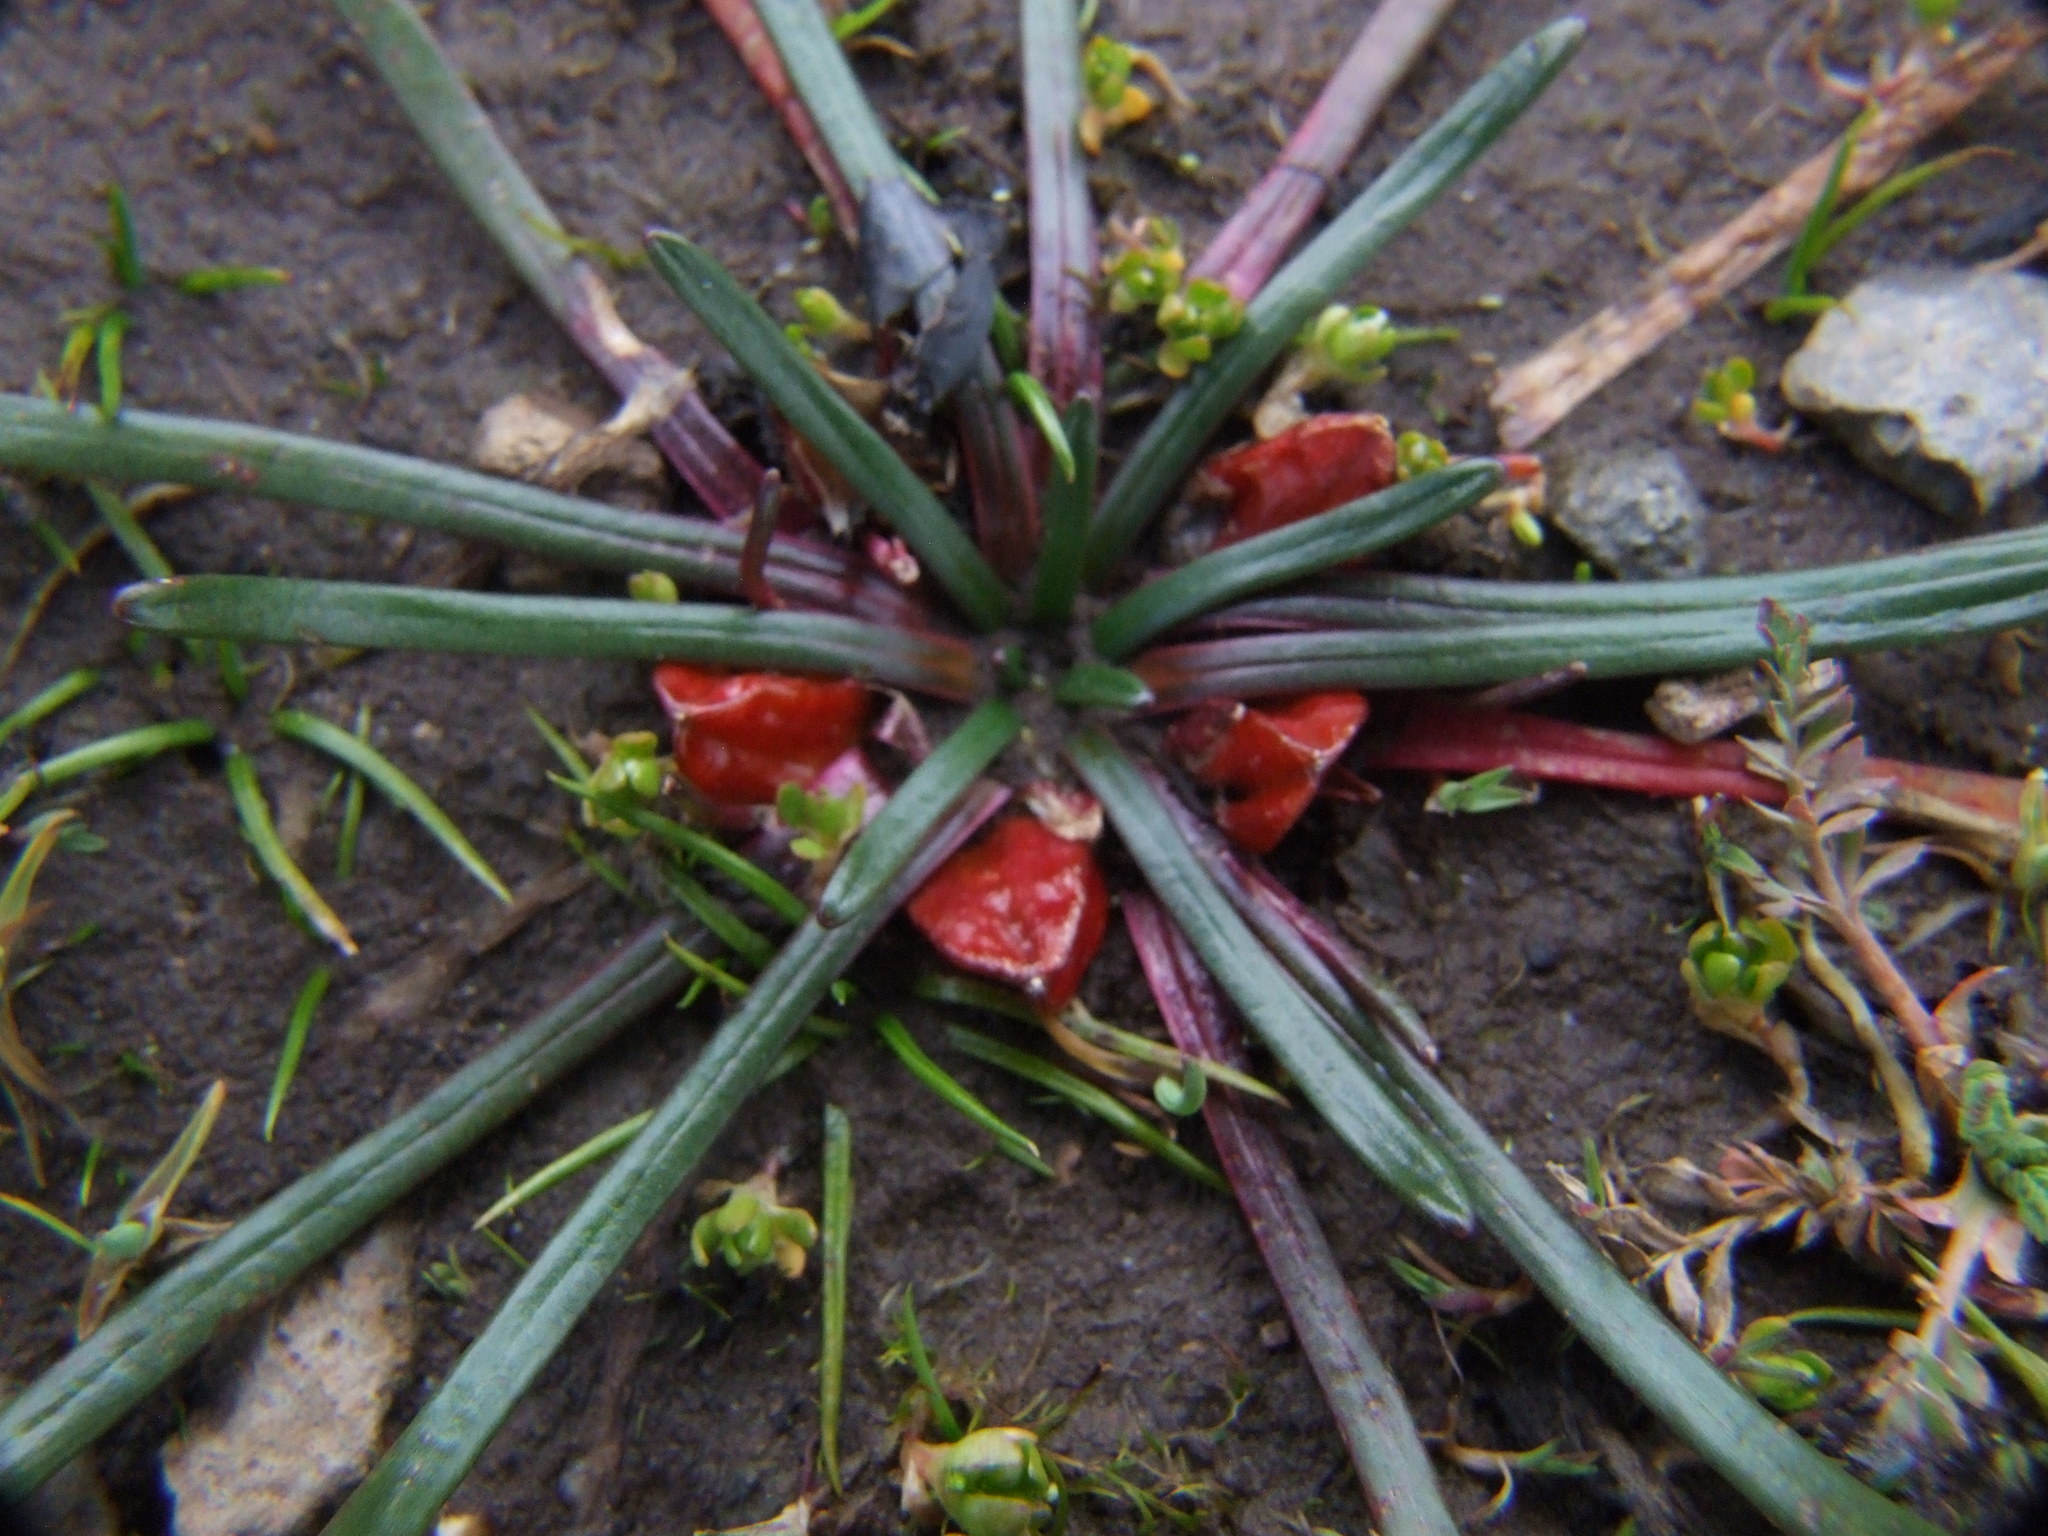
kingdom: Plantae
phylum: Tracheophyta
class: Magnoliopsida
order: Caryophyllales
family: Montiaceae
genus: Calandrinia
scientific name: Calandrinia acaulis
